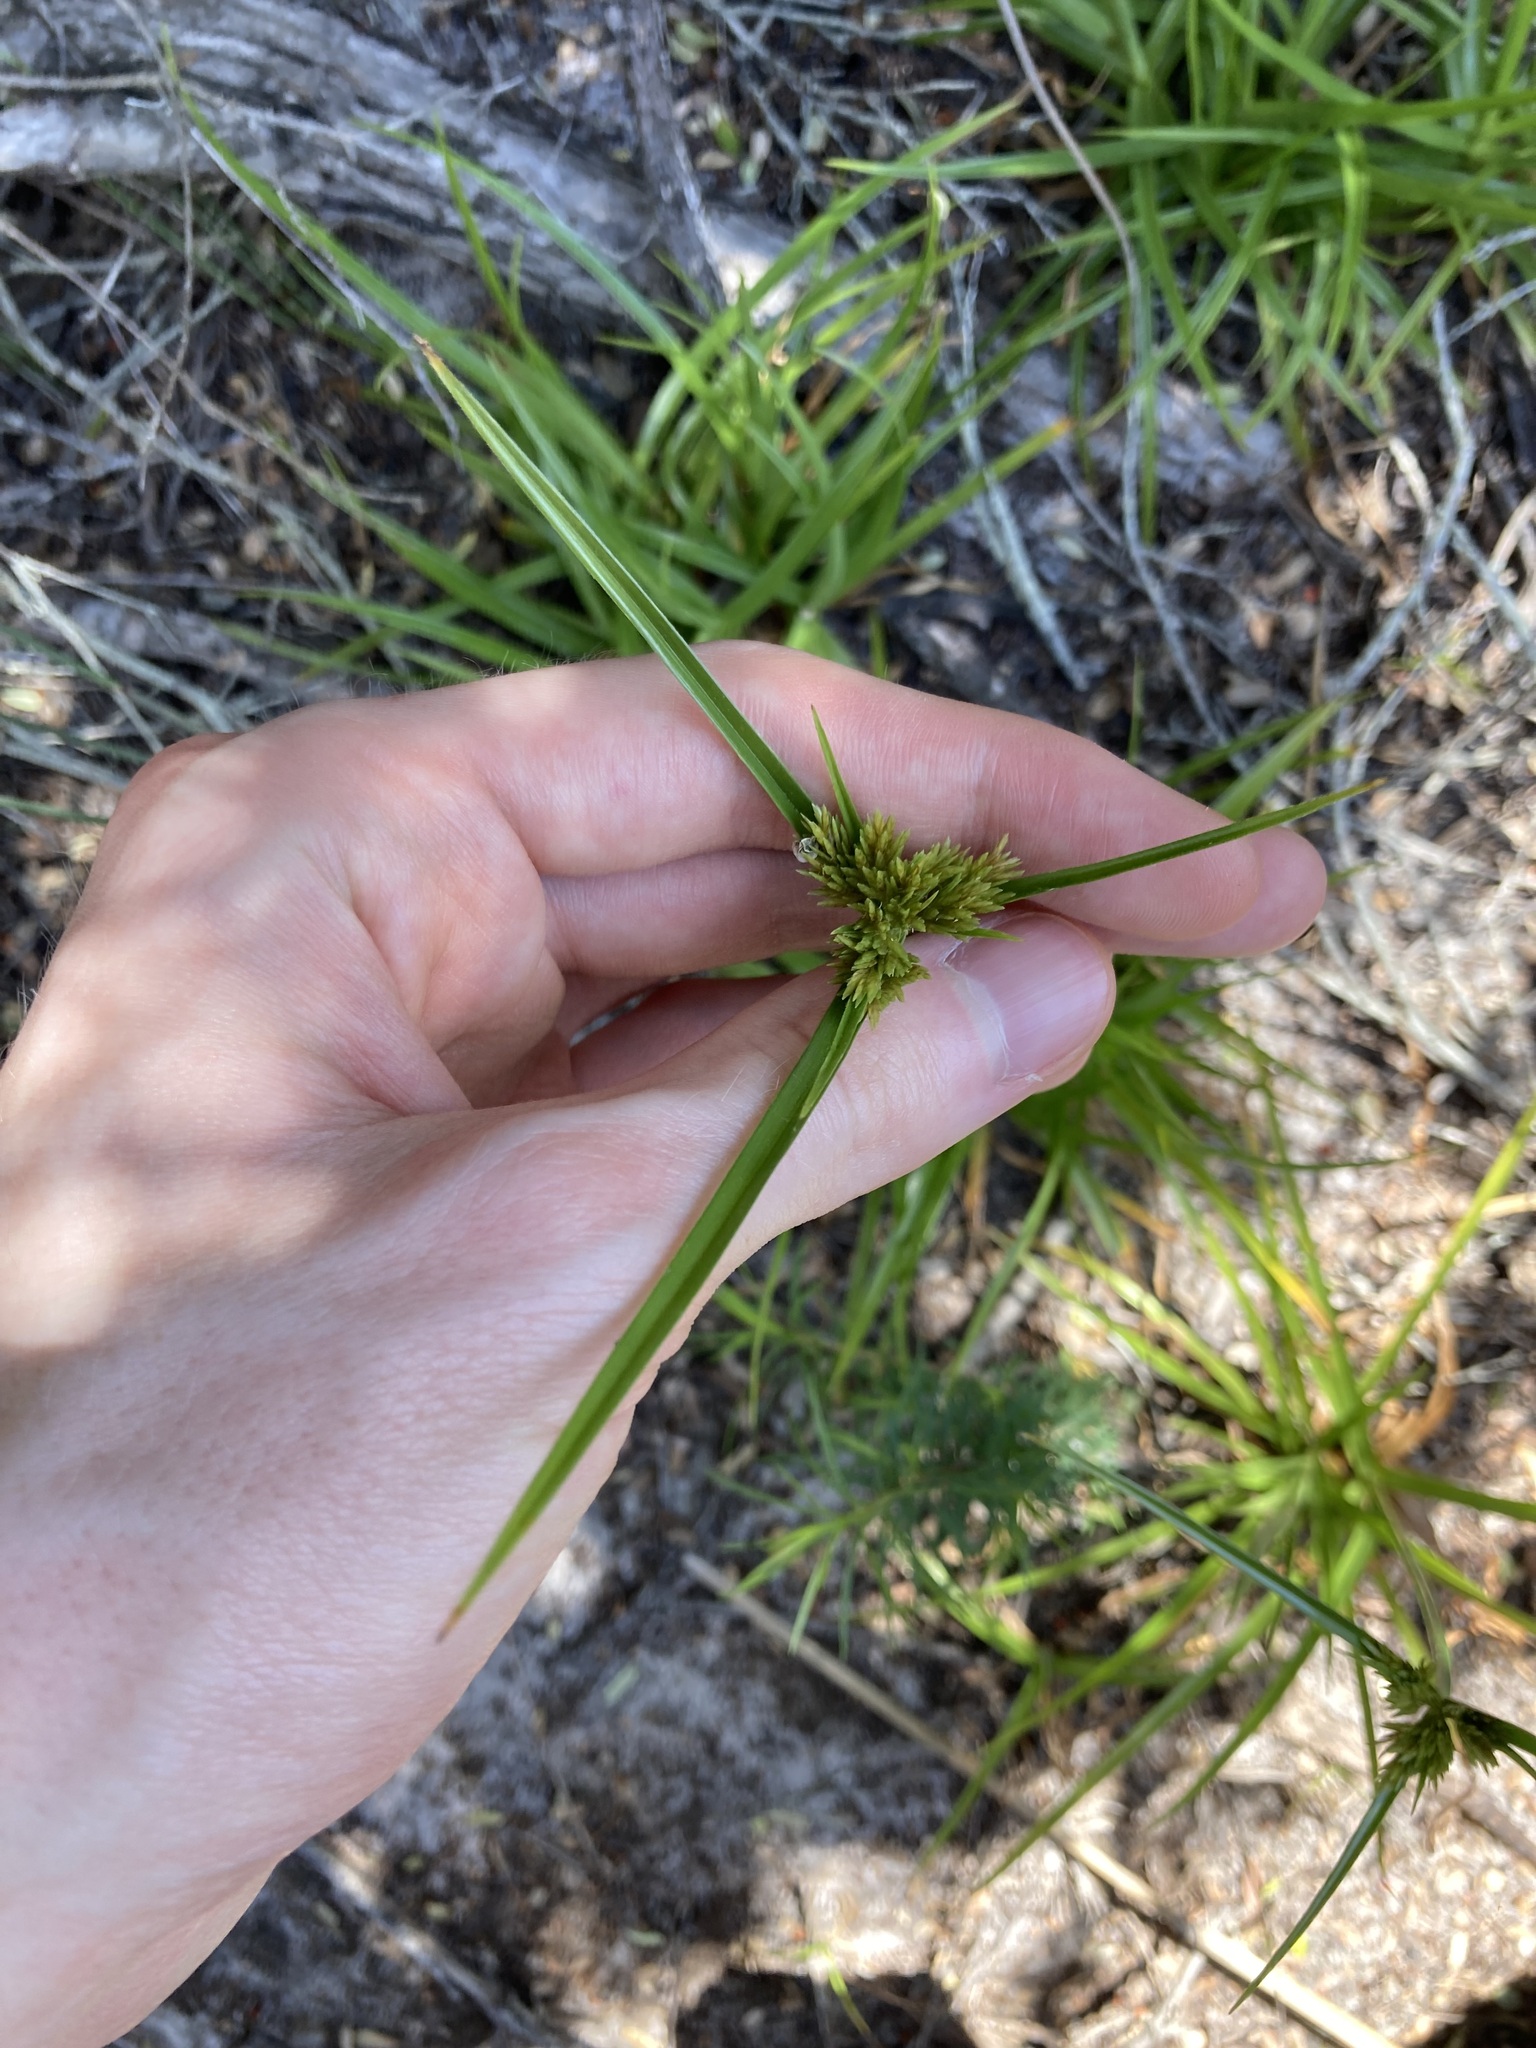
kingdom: Plantae
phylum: Tracheophyta
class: Liliopsida
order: Poales
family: Cyperaceae
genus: Cyperus
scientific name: Cyperus polystachyos
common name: Bunchy flat sedge
